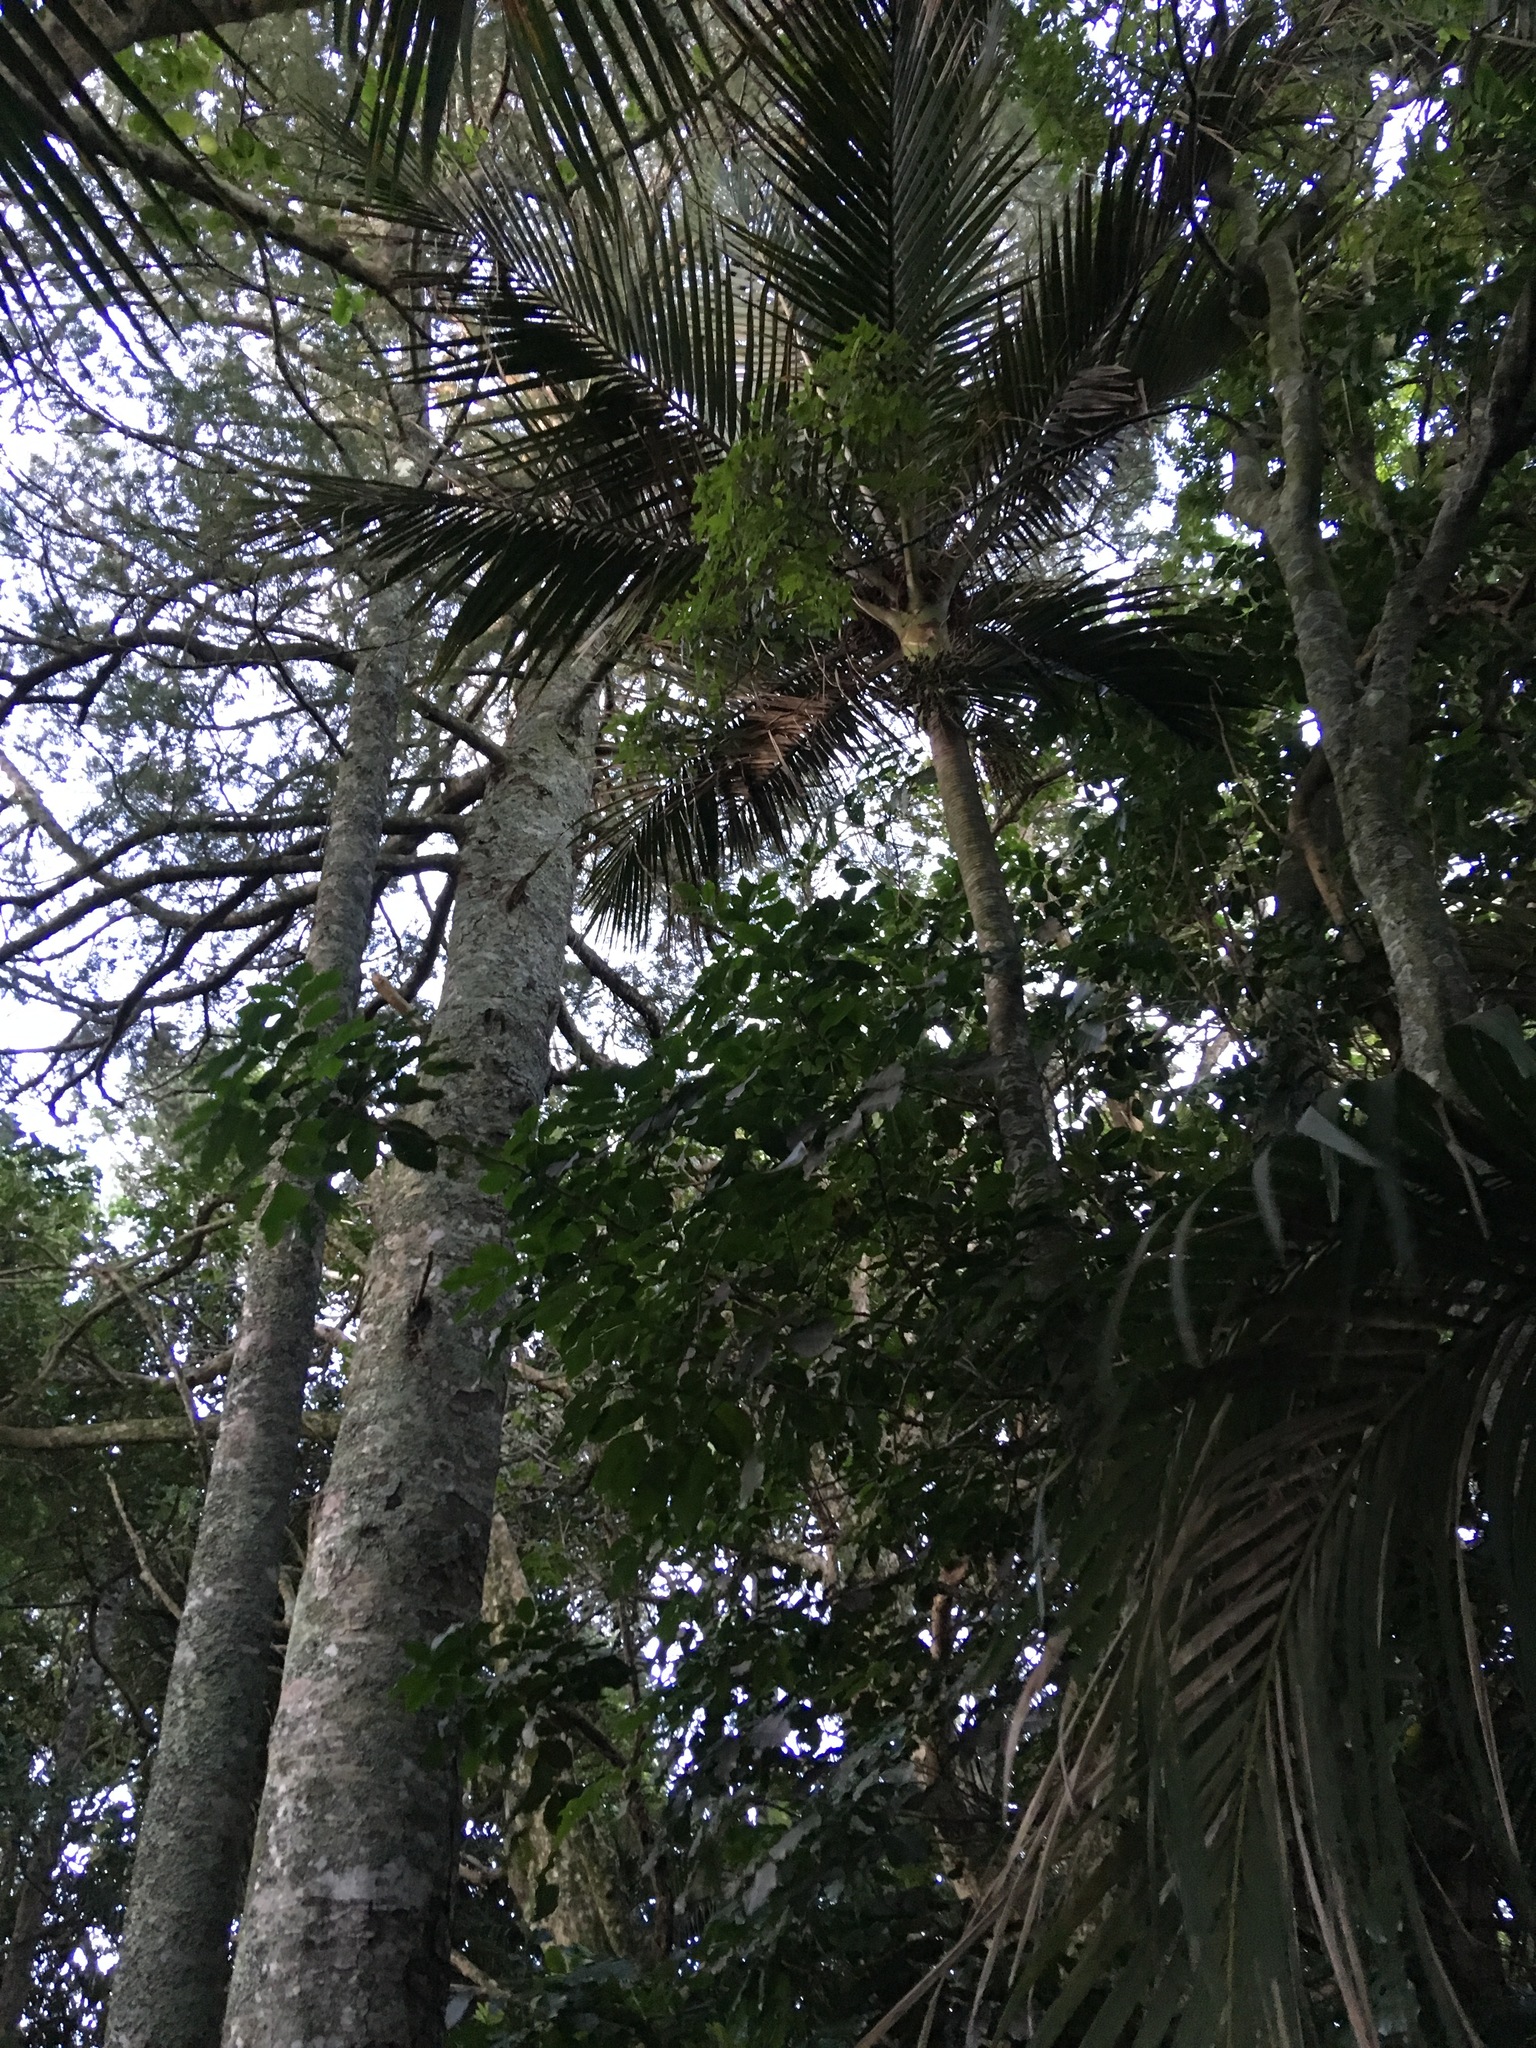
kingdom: Plantae
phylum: Tracheophyta
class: Pinopsida
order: Pinales
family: Podocarpaceae
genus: Dacrycarpus
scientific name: Dacrycarpus dacrydioides
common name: White pine
